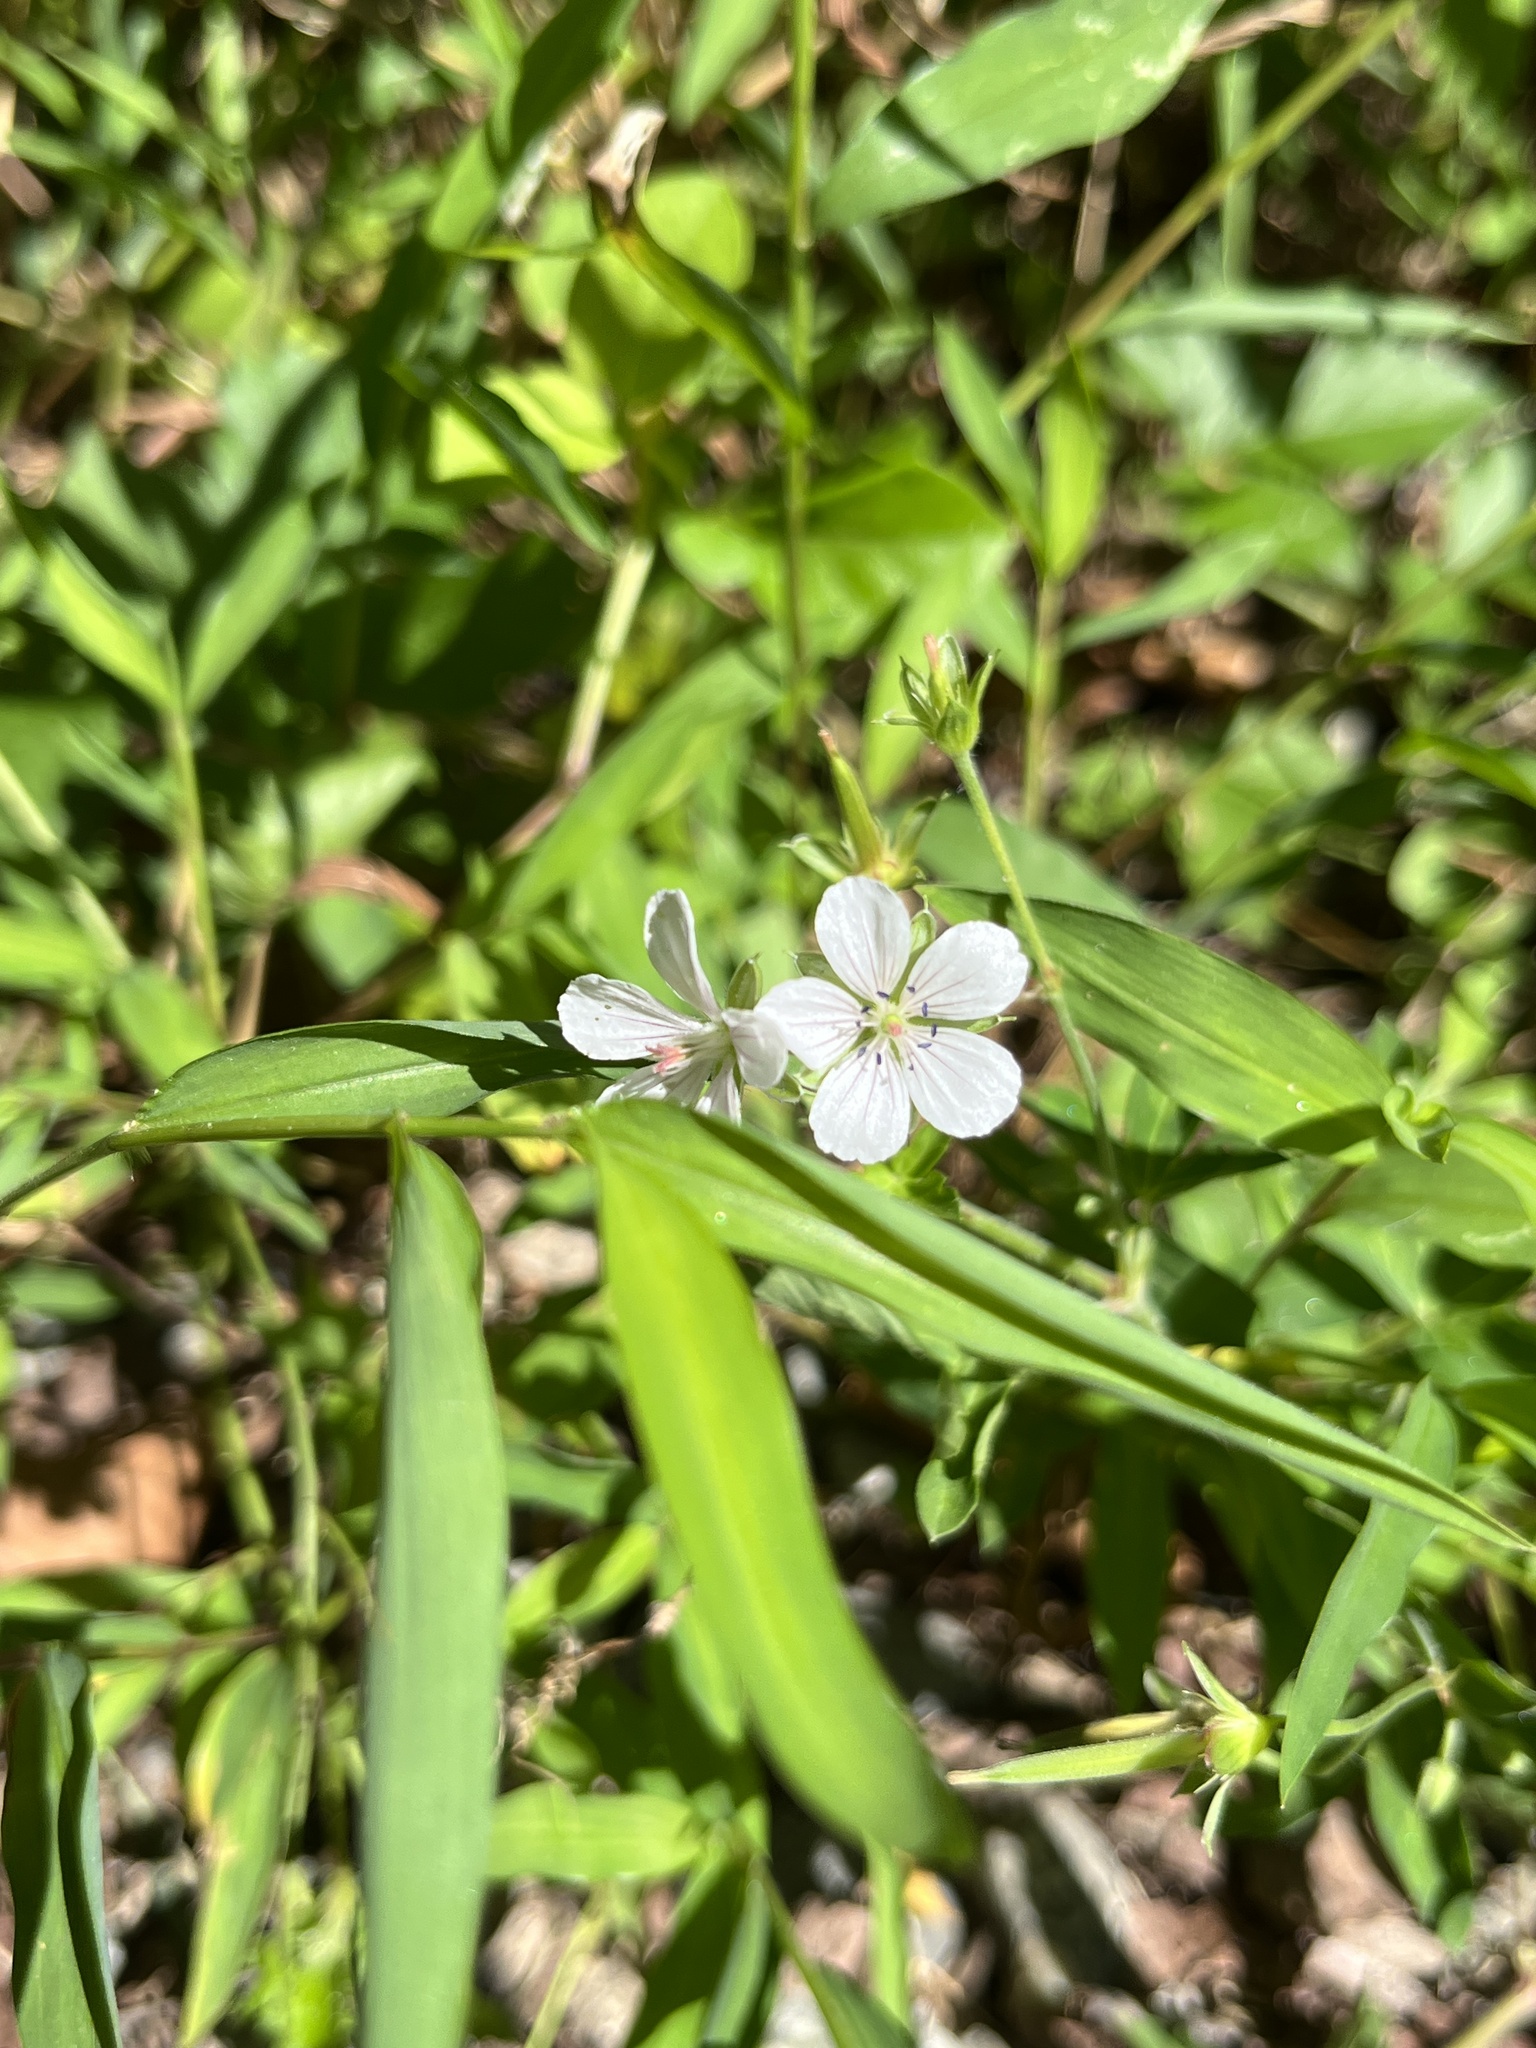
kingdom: Plantae
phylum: Tracheophyta
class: Magnoliopsida
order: Geraniales
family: Geraniaceae
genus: Geranium
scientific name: Geranium thunbergii
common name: Dewdrop crane's-bill
